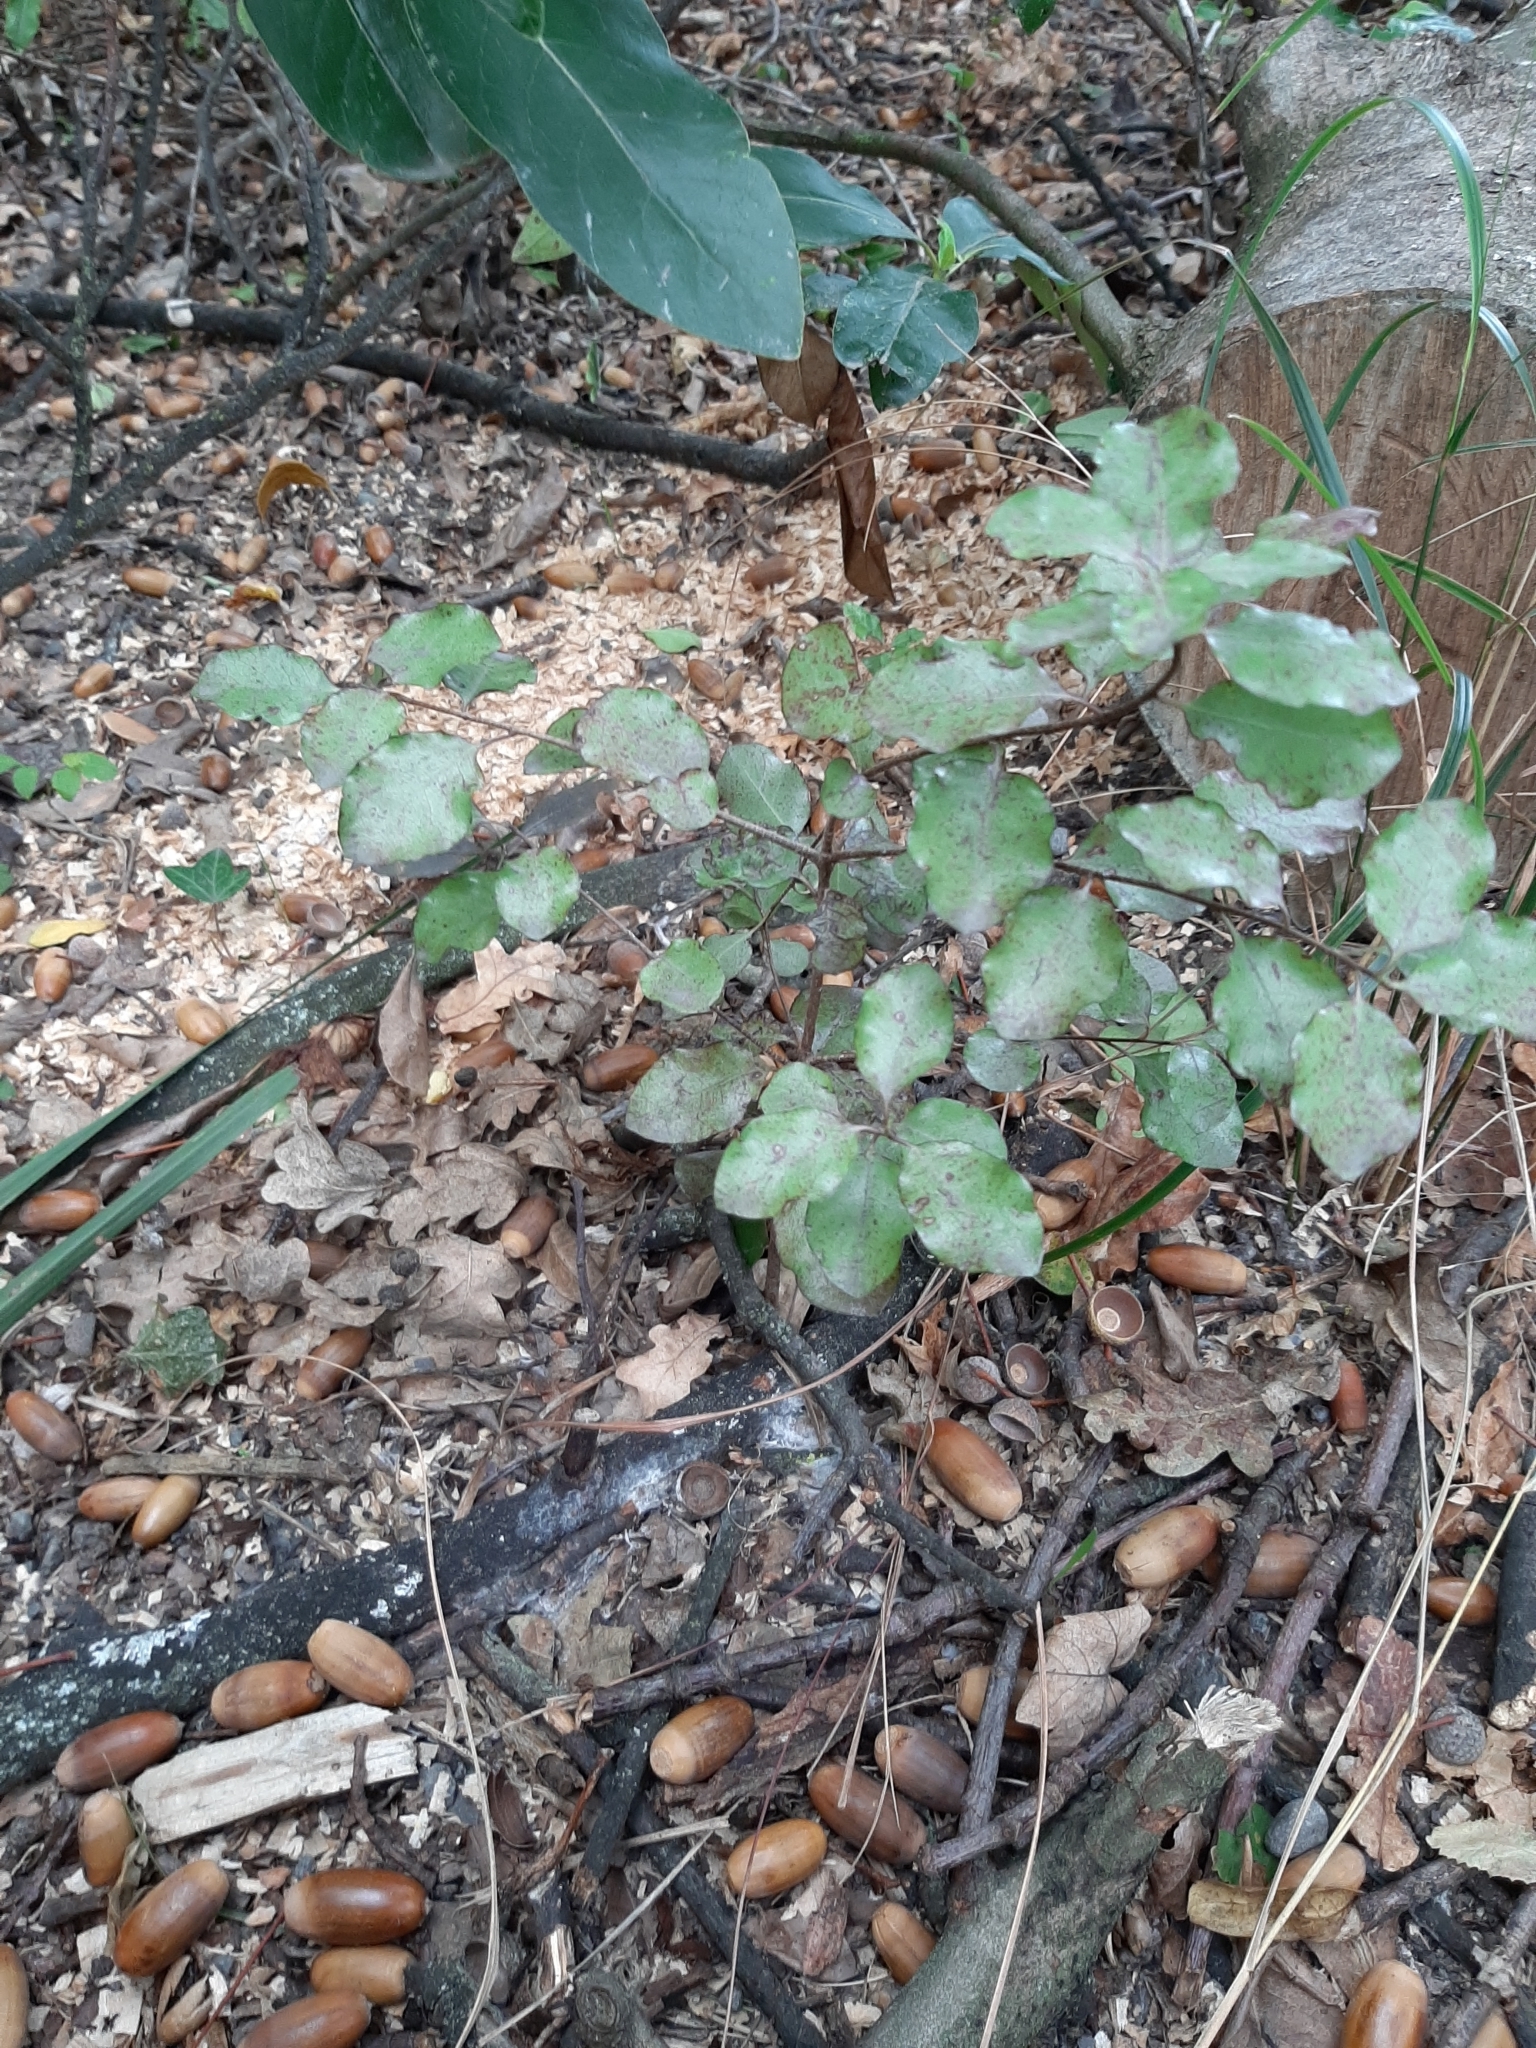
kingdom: Plantae
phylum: Tracheophyta
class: Magnoliopsida
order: Apiales
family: Pittosporaceae
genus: Pittosporum
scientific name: Pittosporum tenuifolium
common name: Kohuhu
